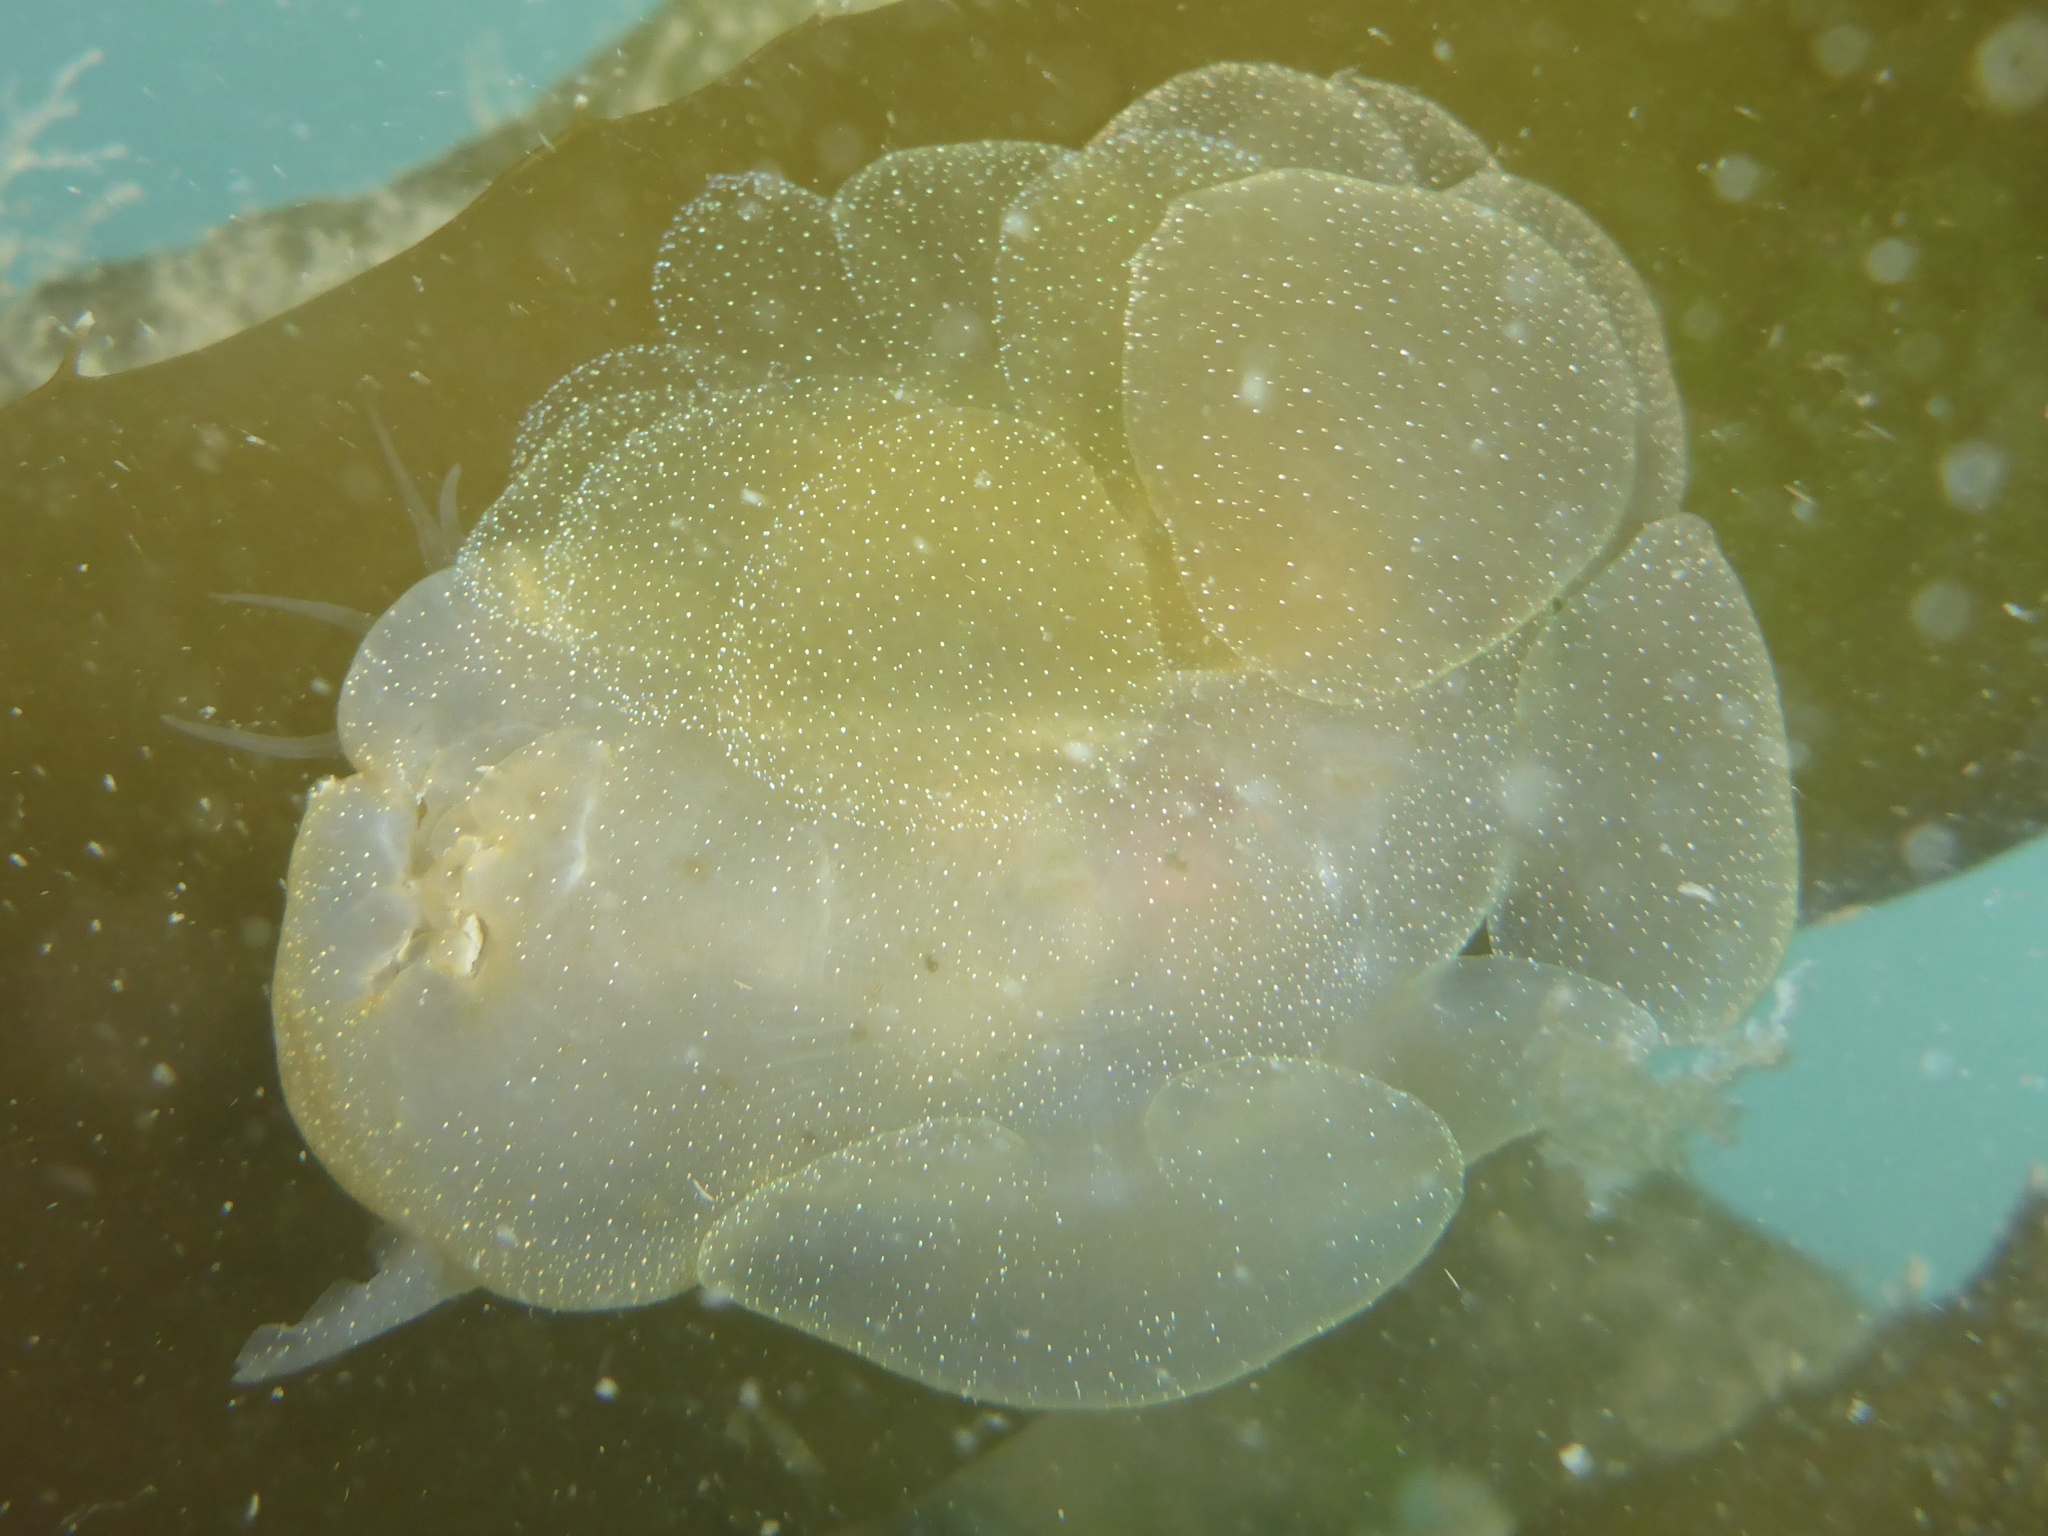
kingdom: Animalia
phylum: Mollusca
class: Gastropoda
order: Nudibranchia
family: Tethydidae
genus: Melibe
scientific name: Melibe leonina
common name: Lion nudibranch
